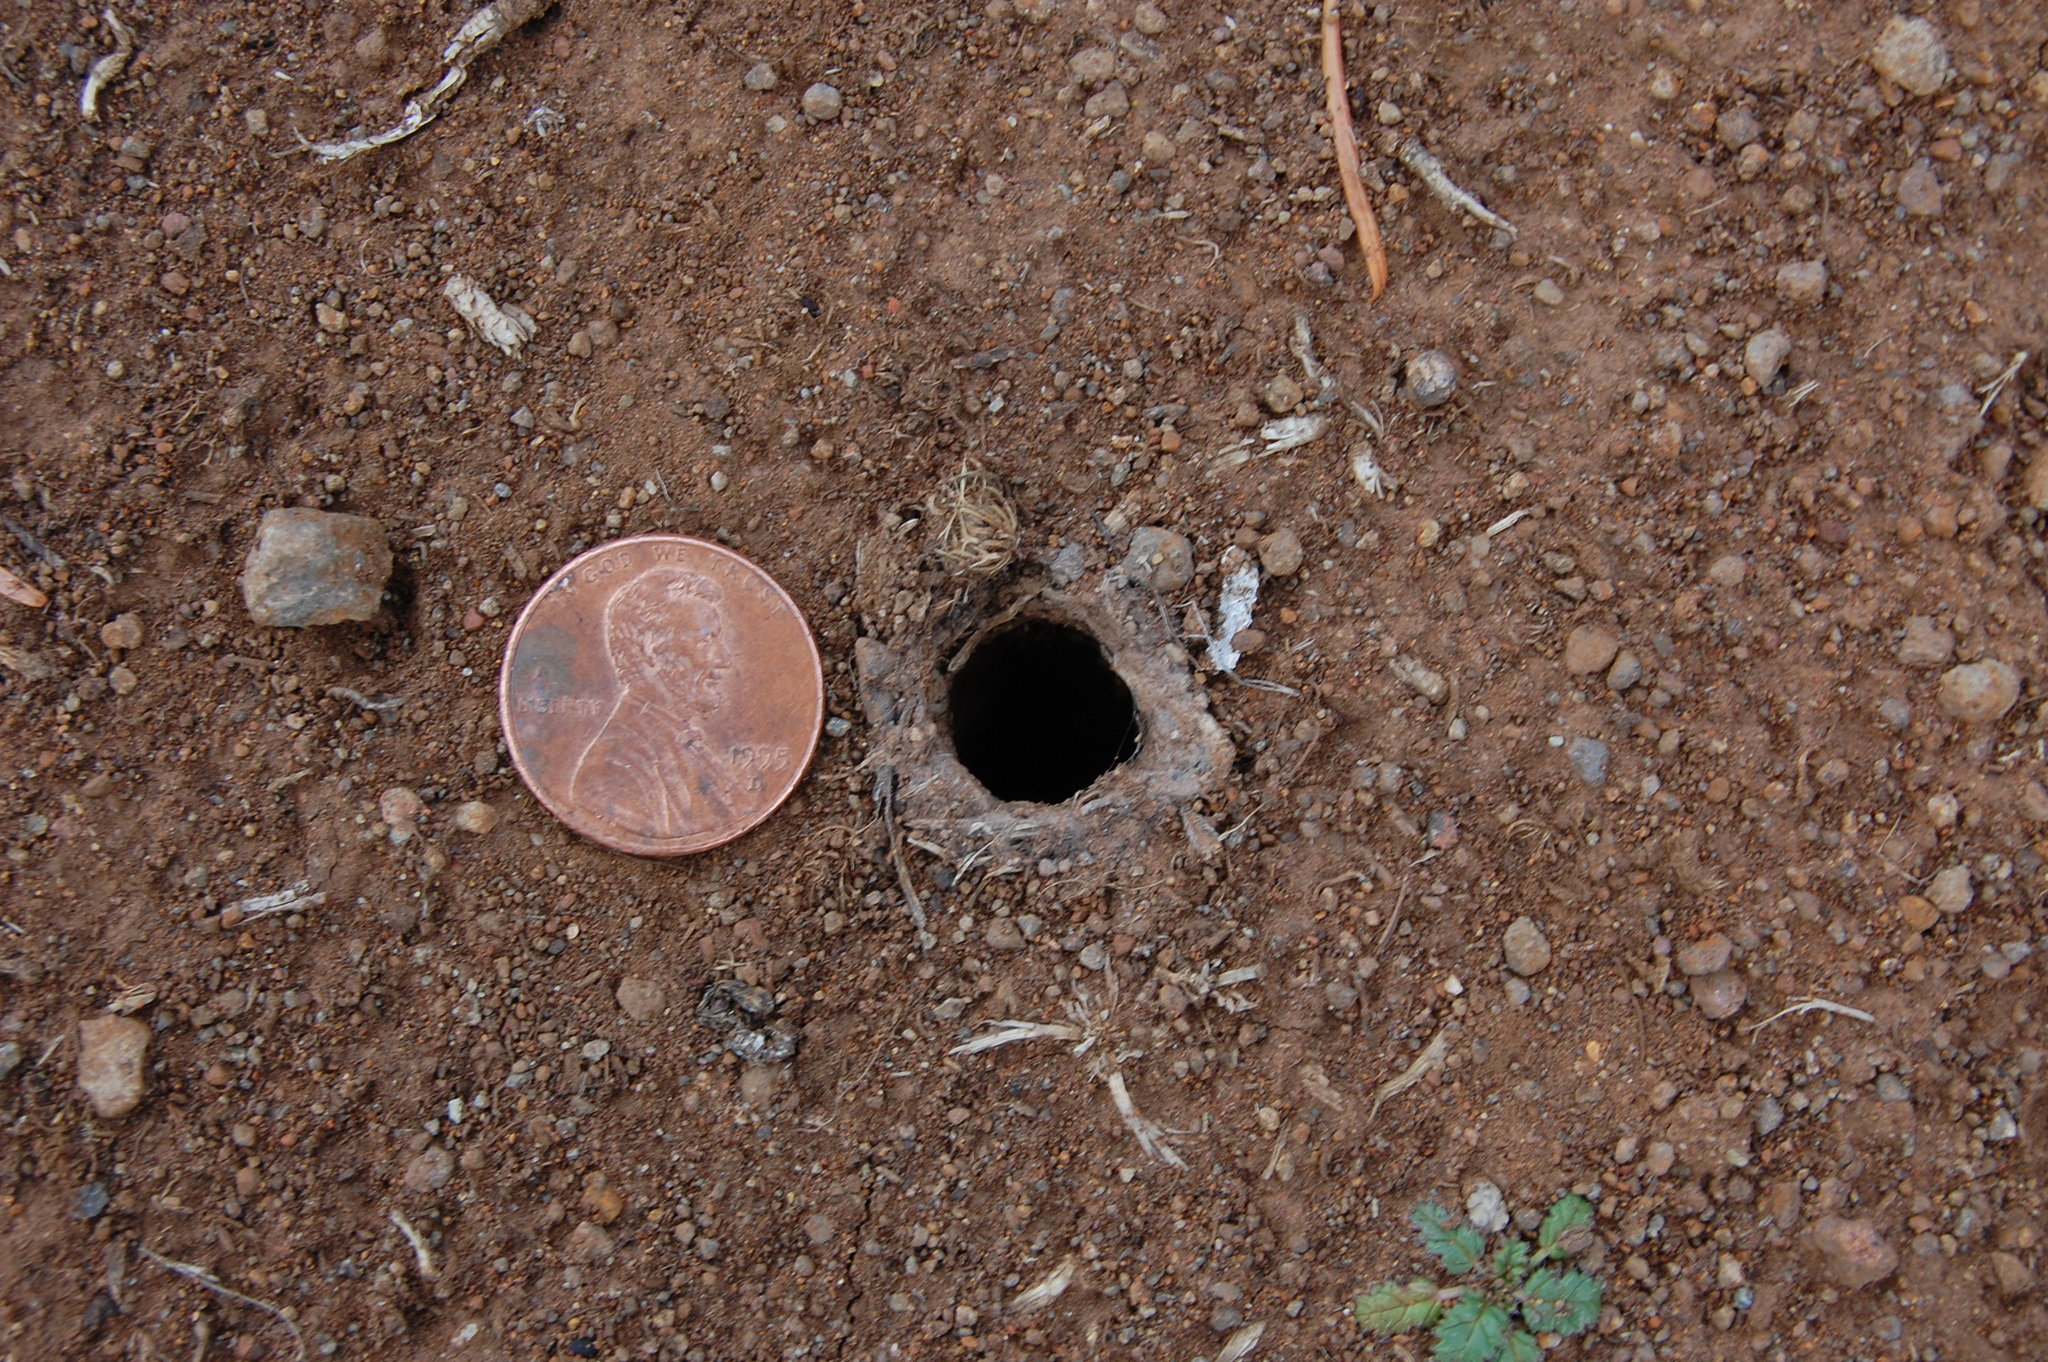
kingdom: Animalia
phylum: Arthropoda
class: Arachnida
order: Araneae
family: Nemesiidae
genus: Calisoga
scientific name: Calisoga longitarsis
